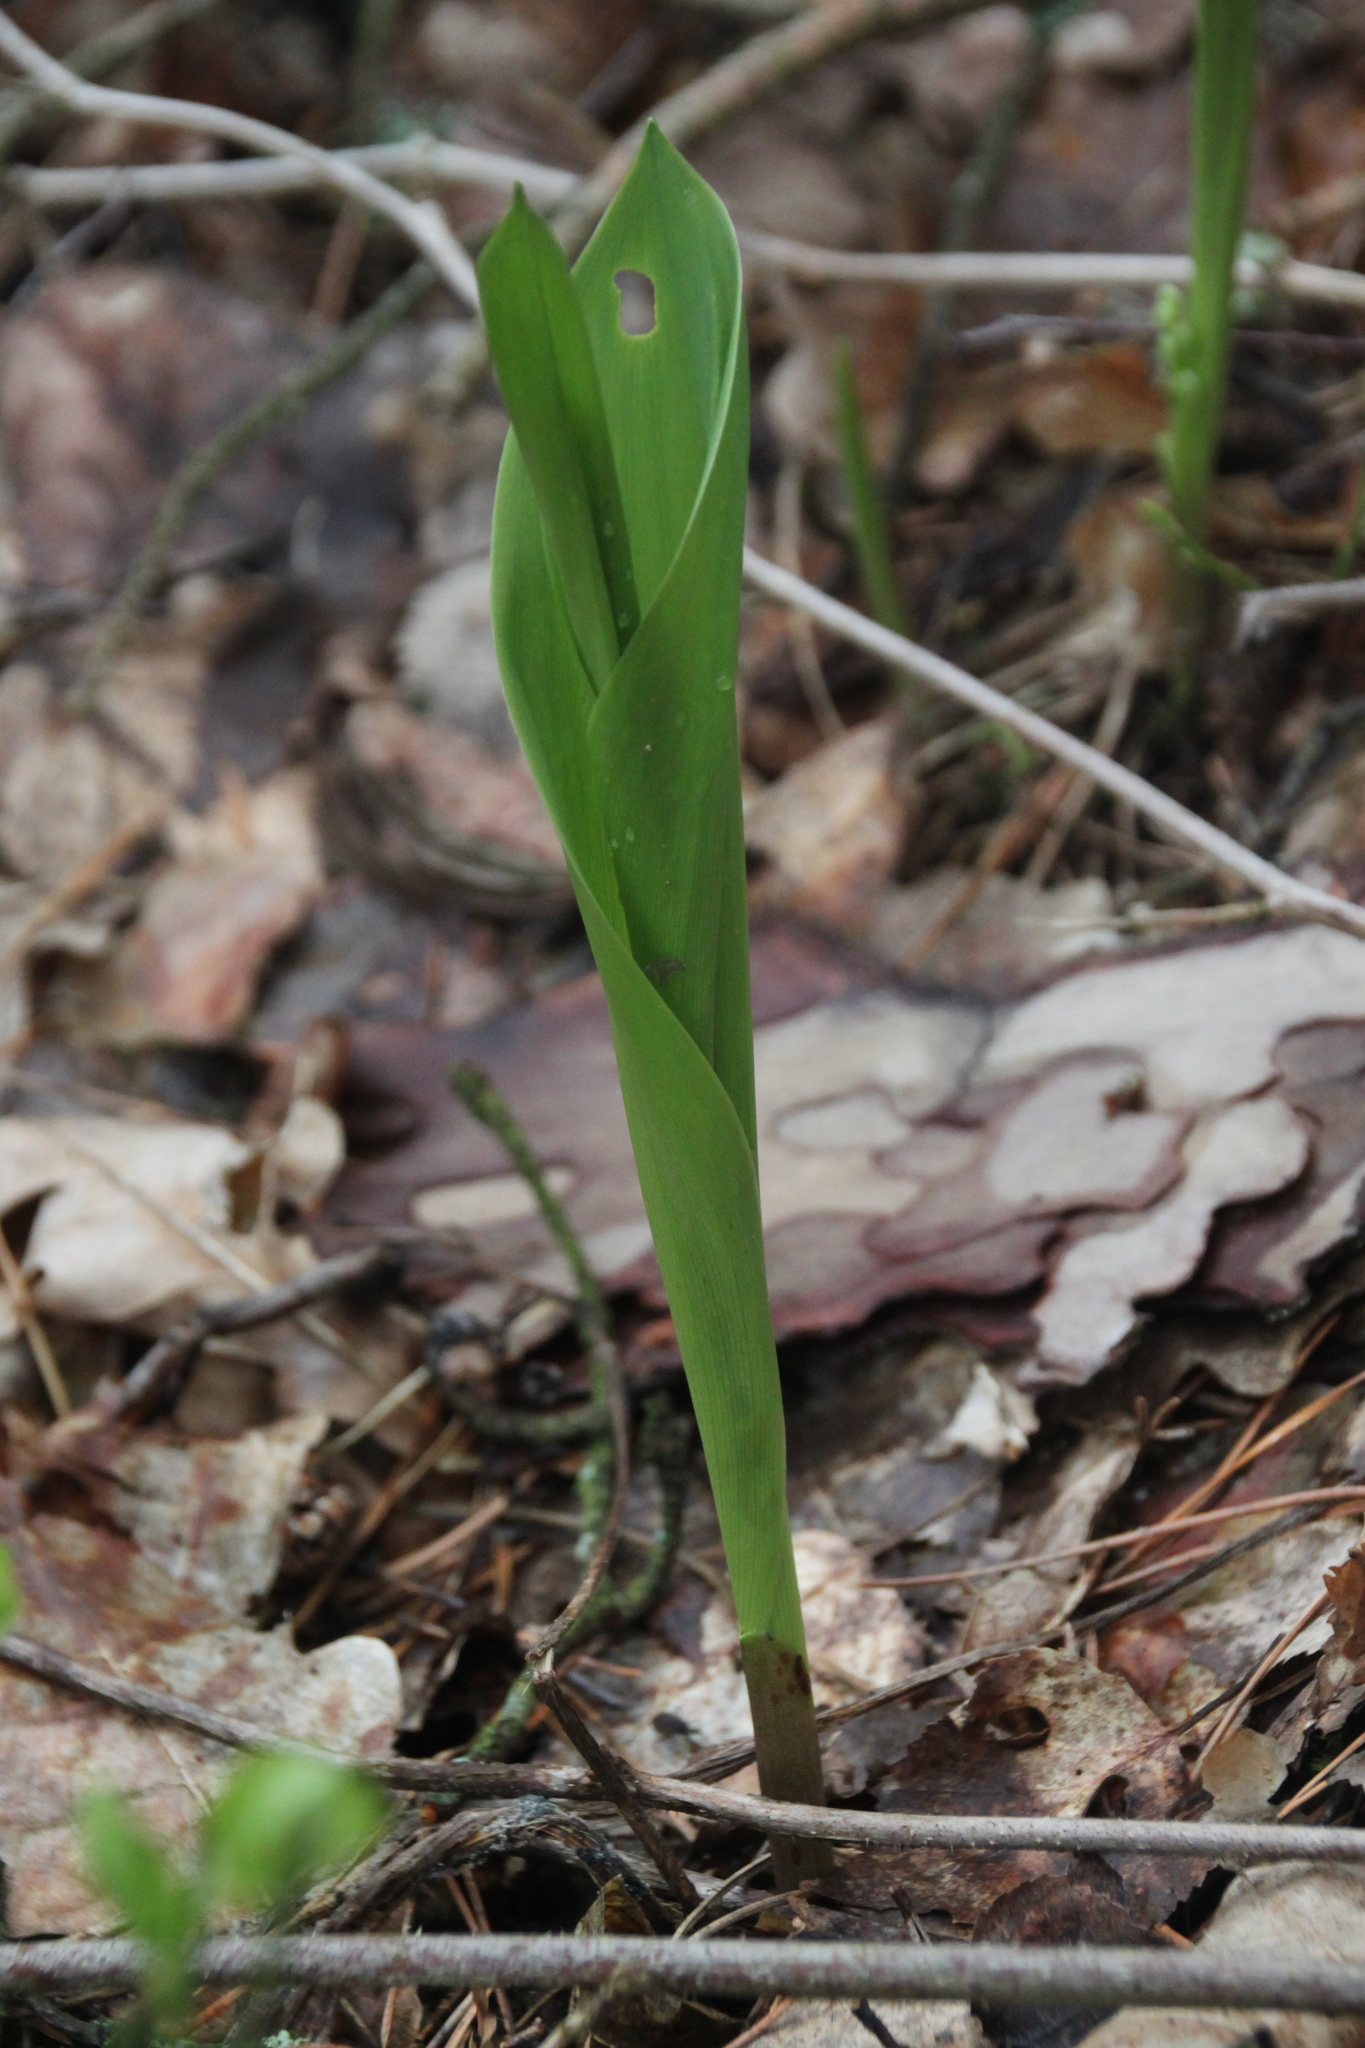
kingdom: Plantae
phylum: Tracheophyta
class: Liliopsida
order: Asparagales
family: Asparagaceae
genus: Convallaria
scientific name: Convallaria majalis
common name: Lily-of-the-valley
